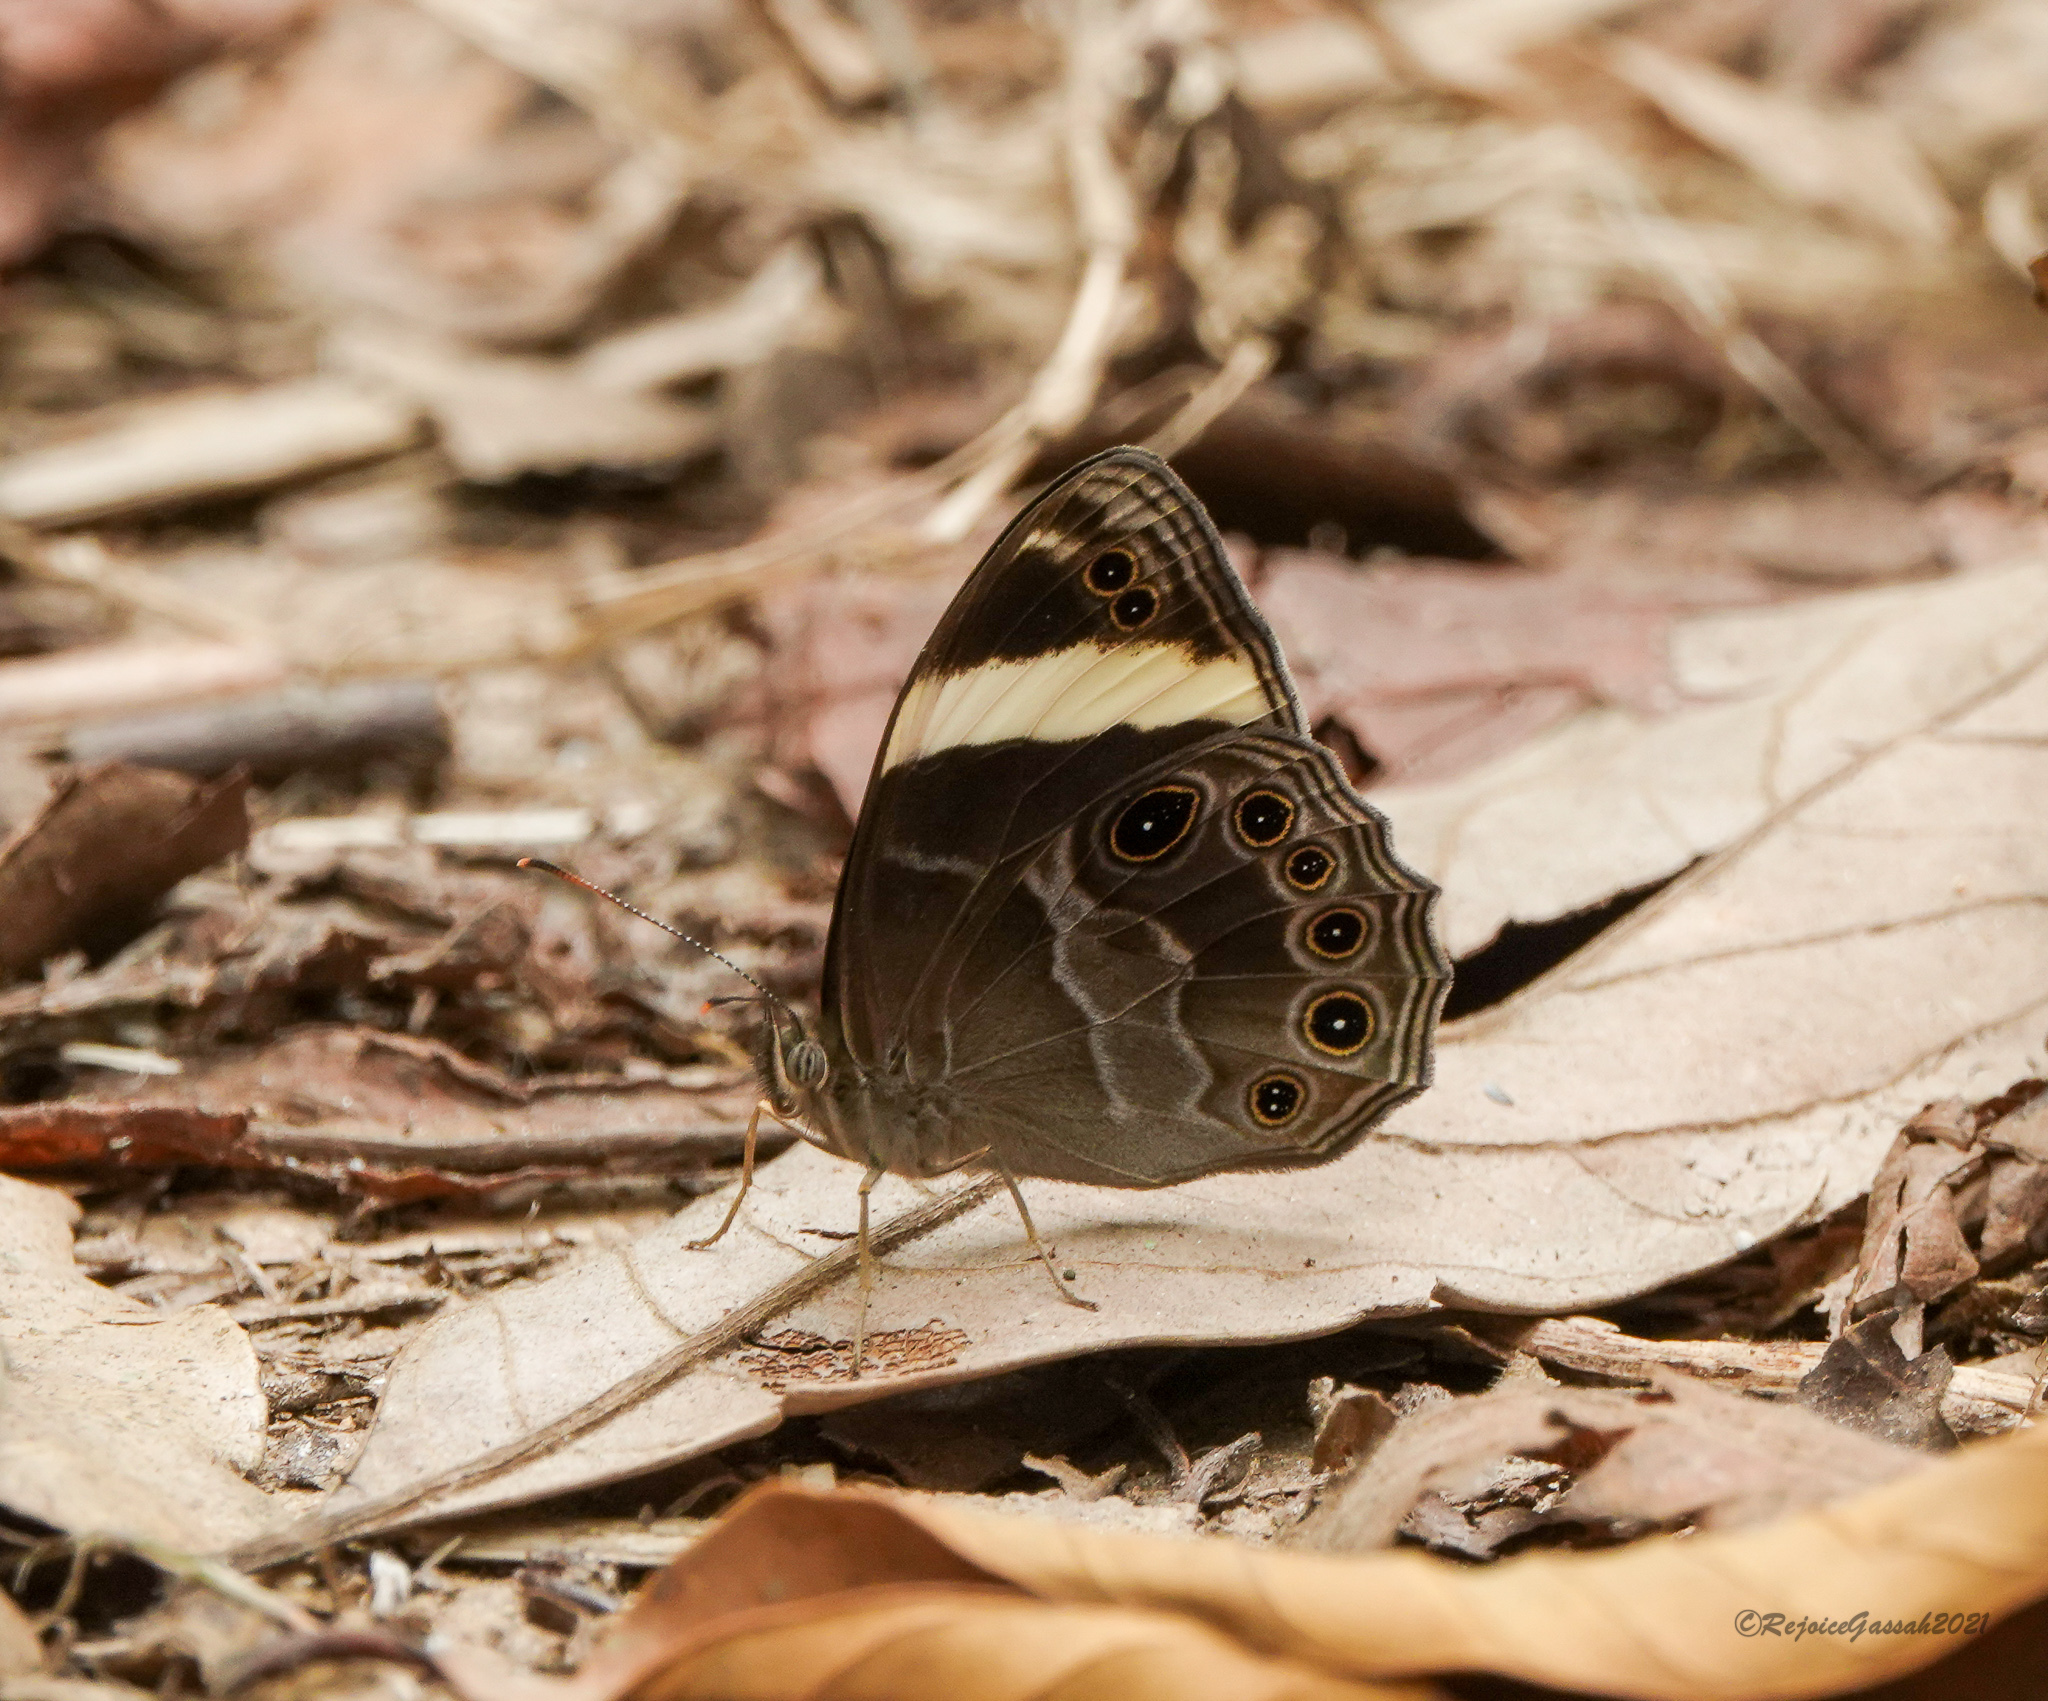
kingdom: Animalia
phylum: Arthropoda
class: Insecta
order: Lepidoptera
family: Nymphalidae
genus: Lethe
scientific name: Lethe verma
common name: Straight-banded treebrown
